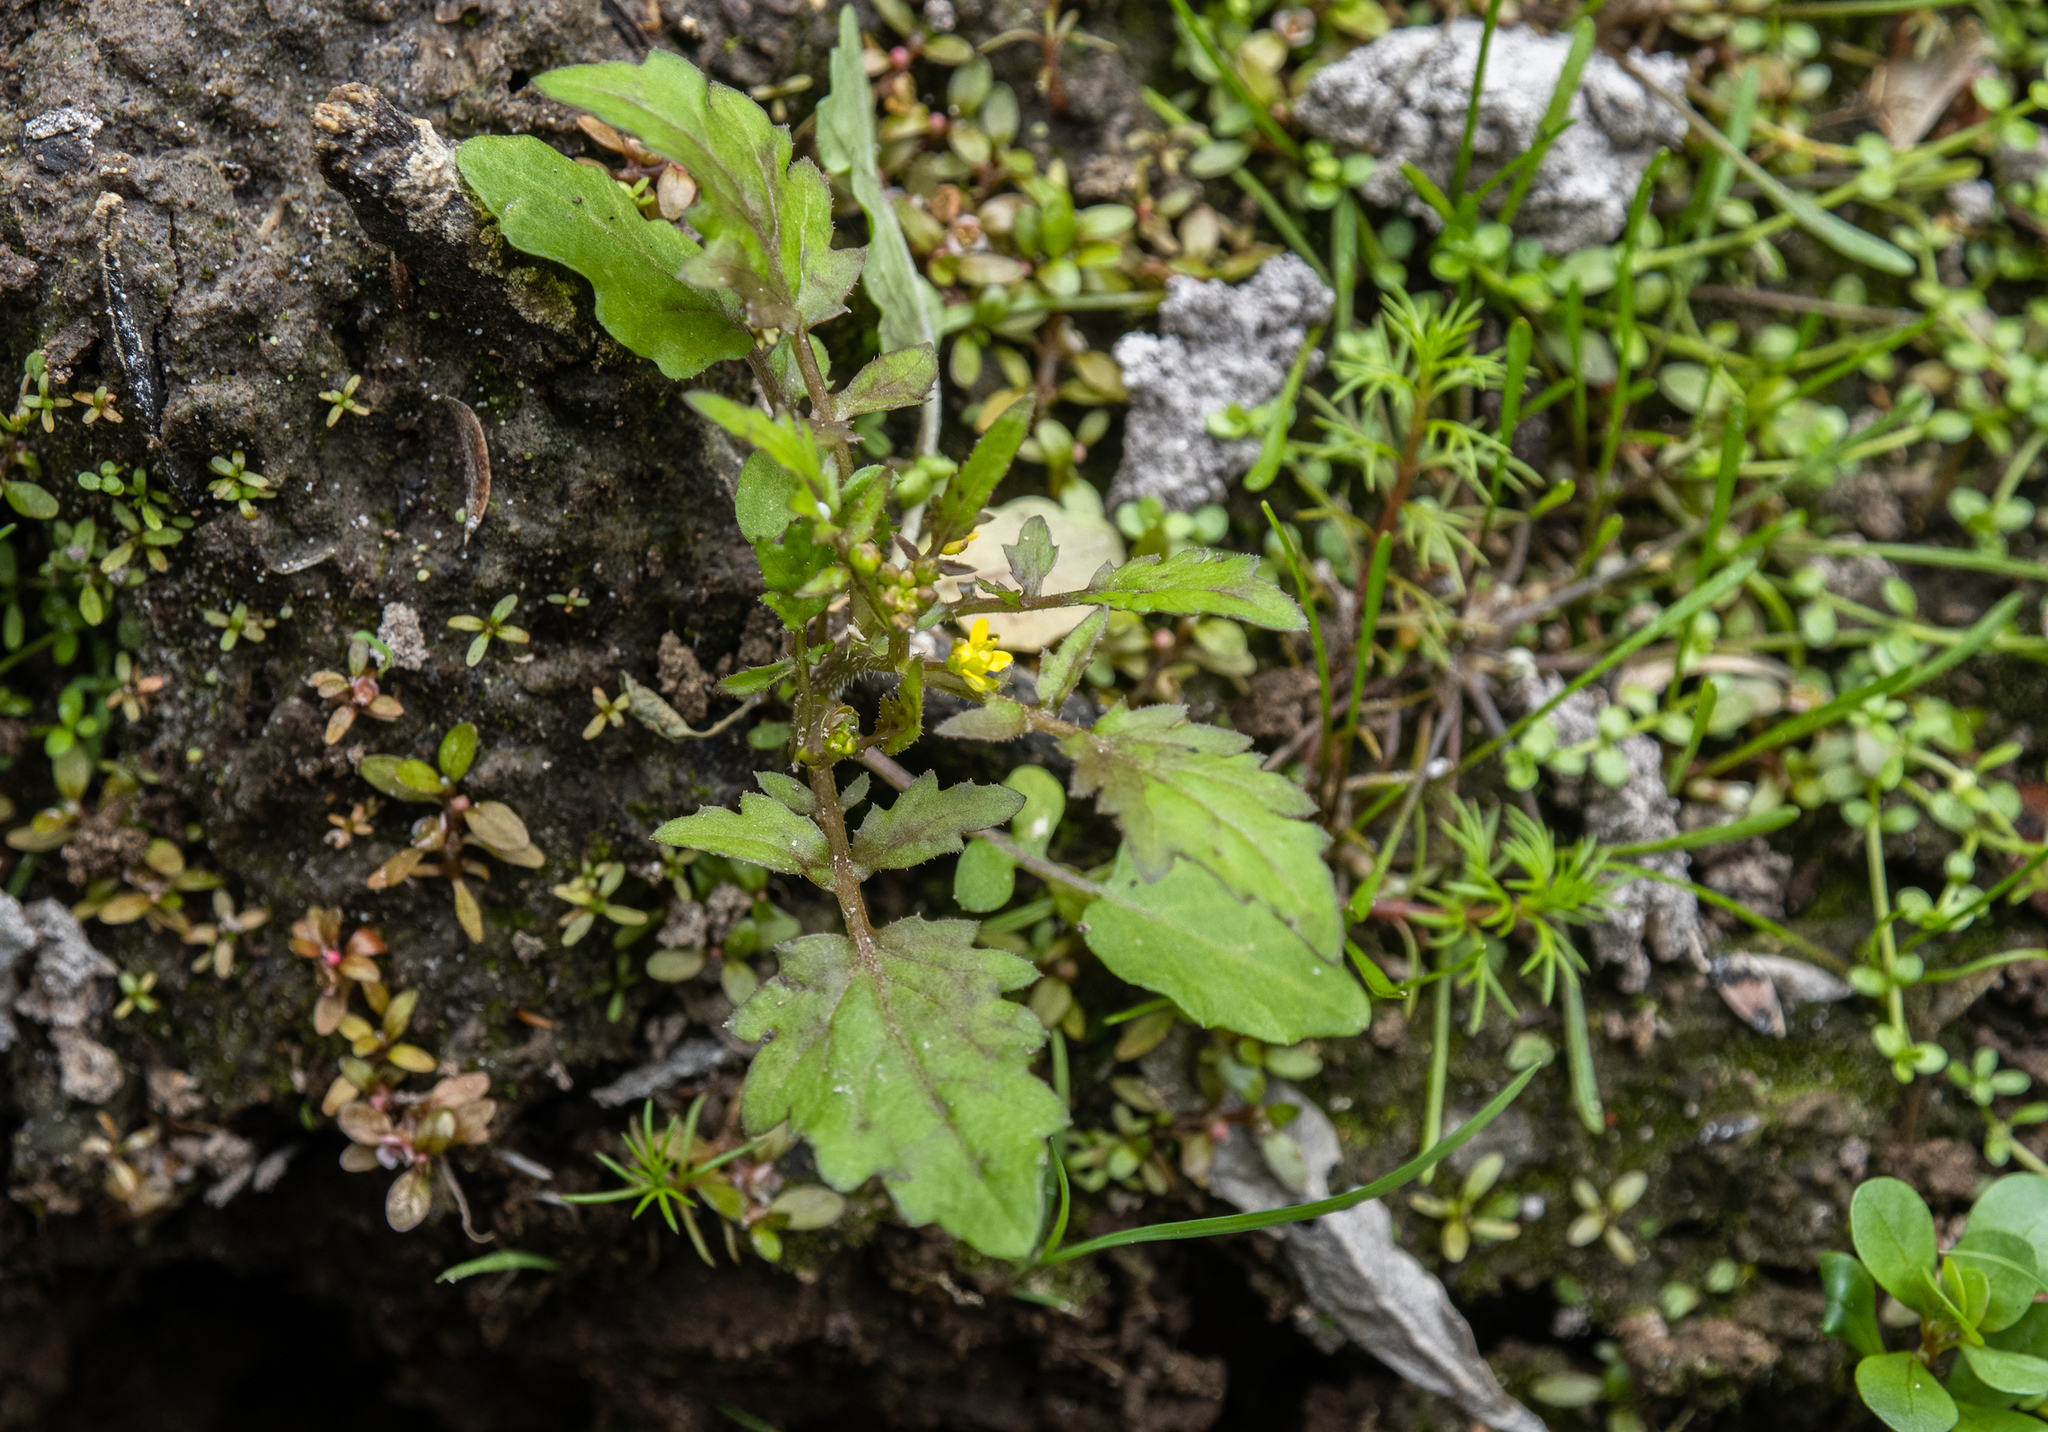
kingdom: Plantae
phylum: Tracheophyta
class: Magnoliopsida
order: Brassicales
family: Brassicaceae
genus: Rorippa
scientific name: Rorippa palustris
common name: Marsh yellow-cress
